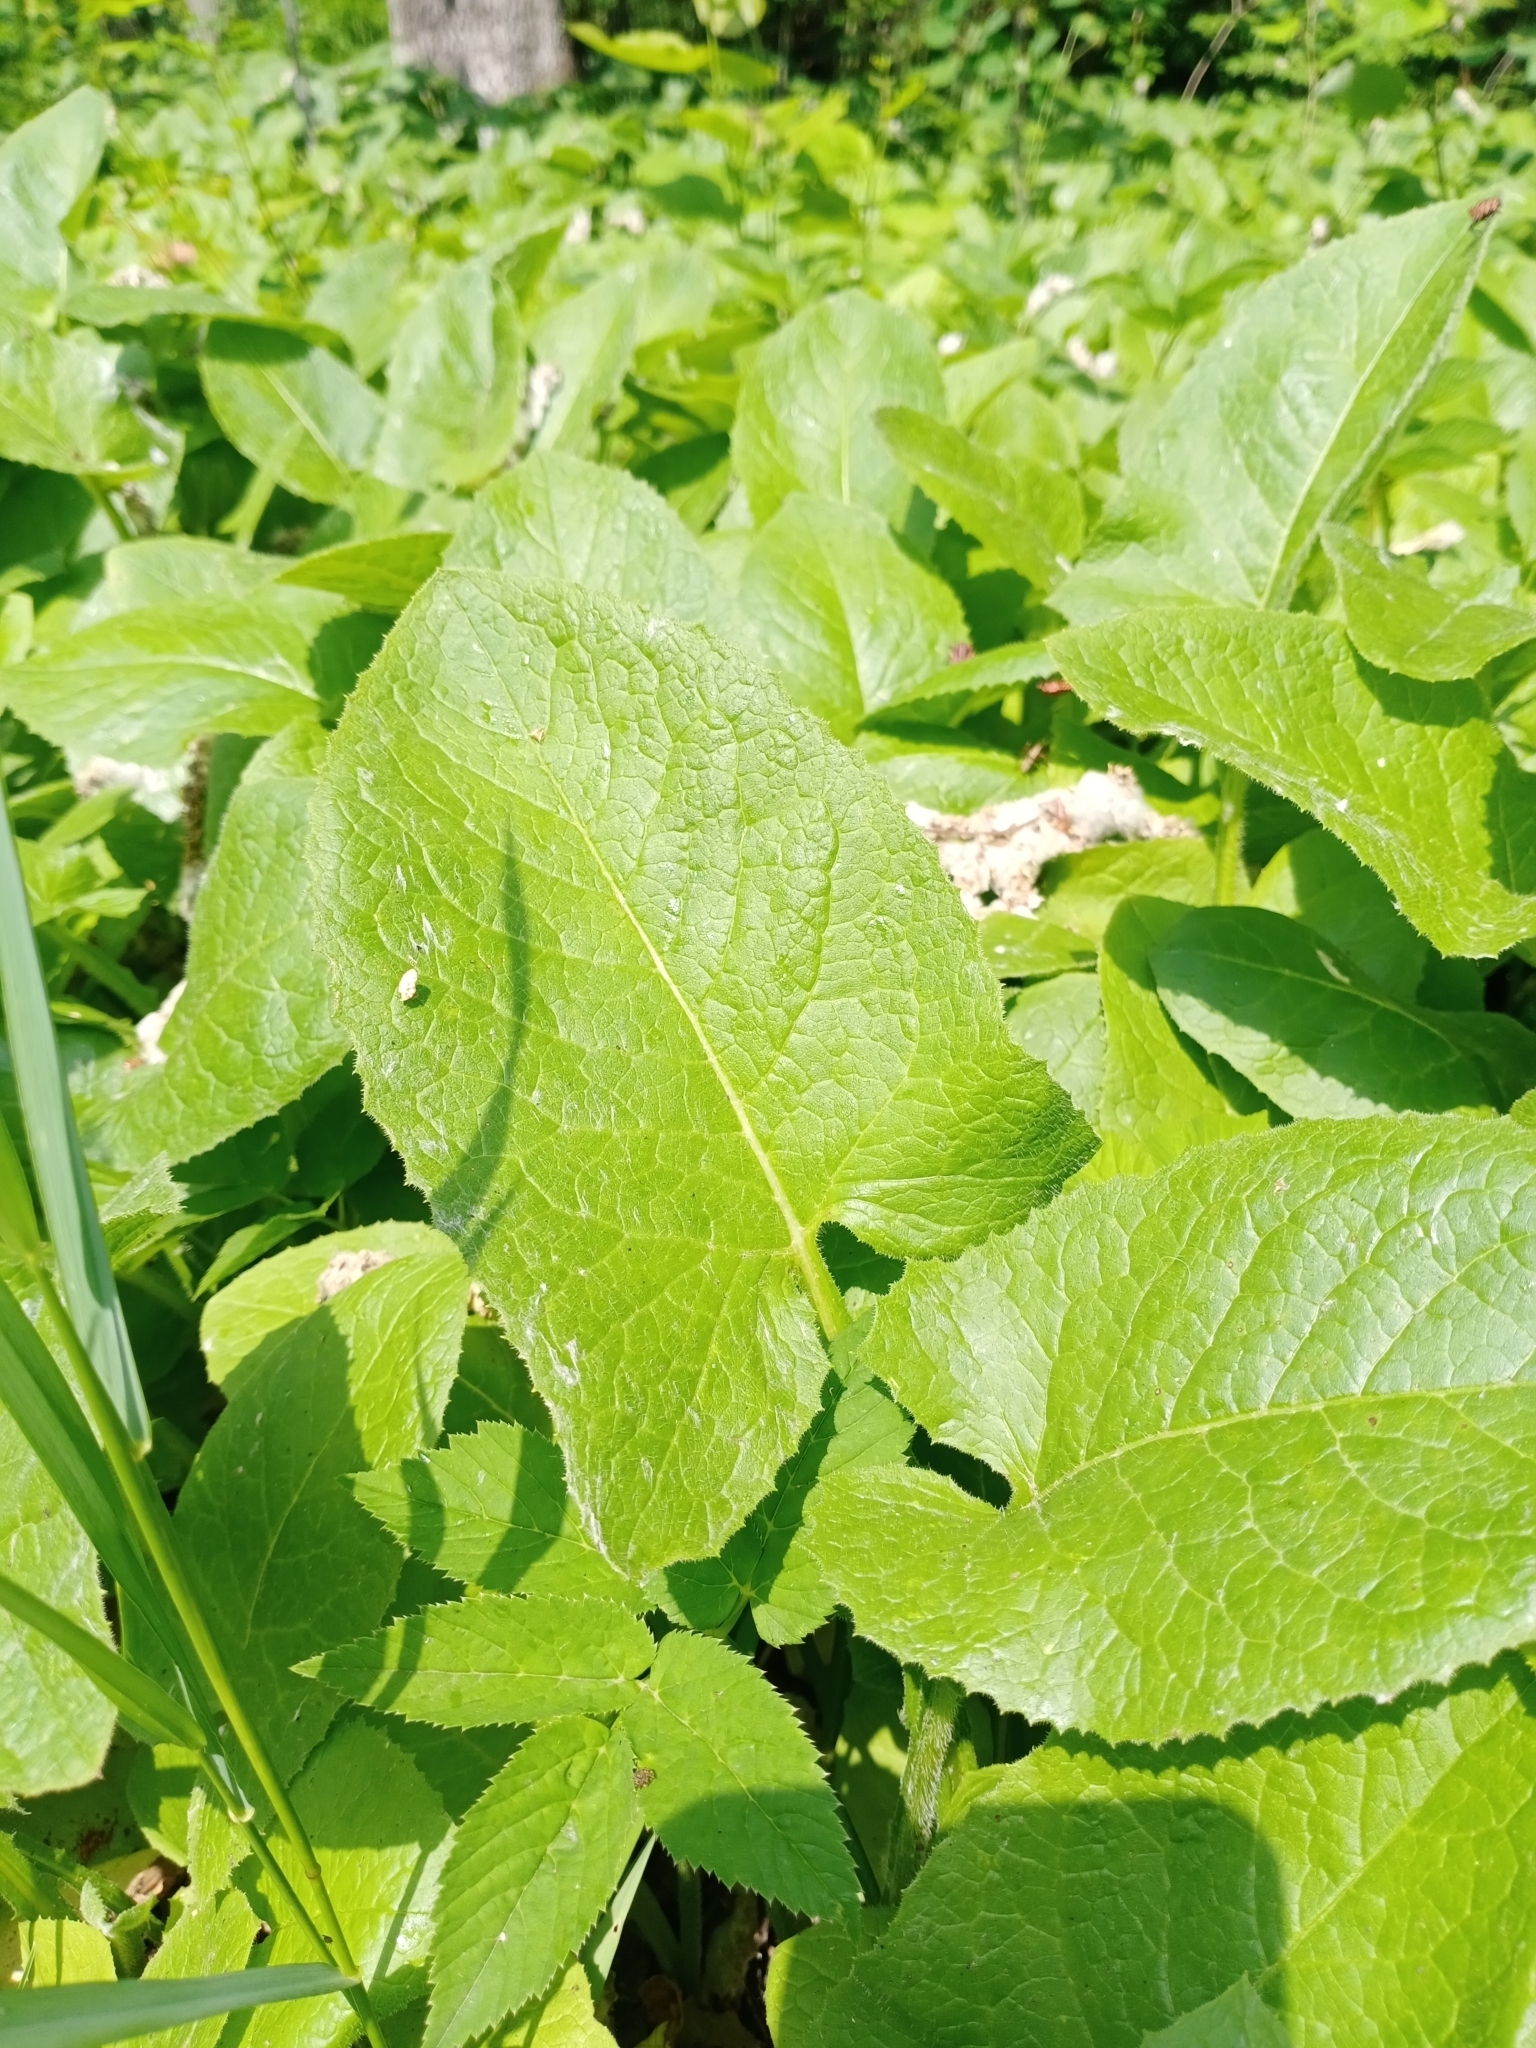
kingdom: Plantae
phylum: Tracheophyta
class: Magnoliopsida
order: Asterales
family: Asteraceae
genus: Lactuca
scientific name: Lactuca macrophylla
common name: Common blue-sow-thistle
